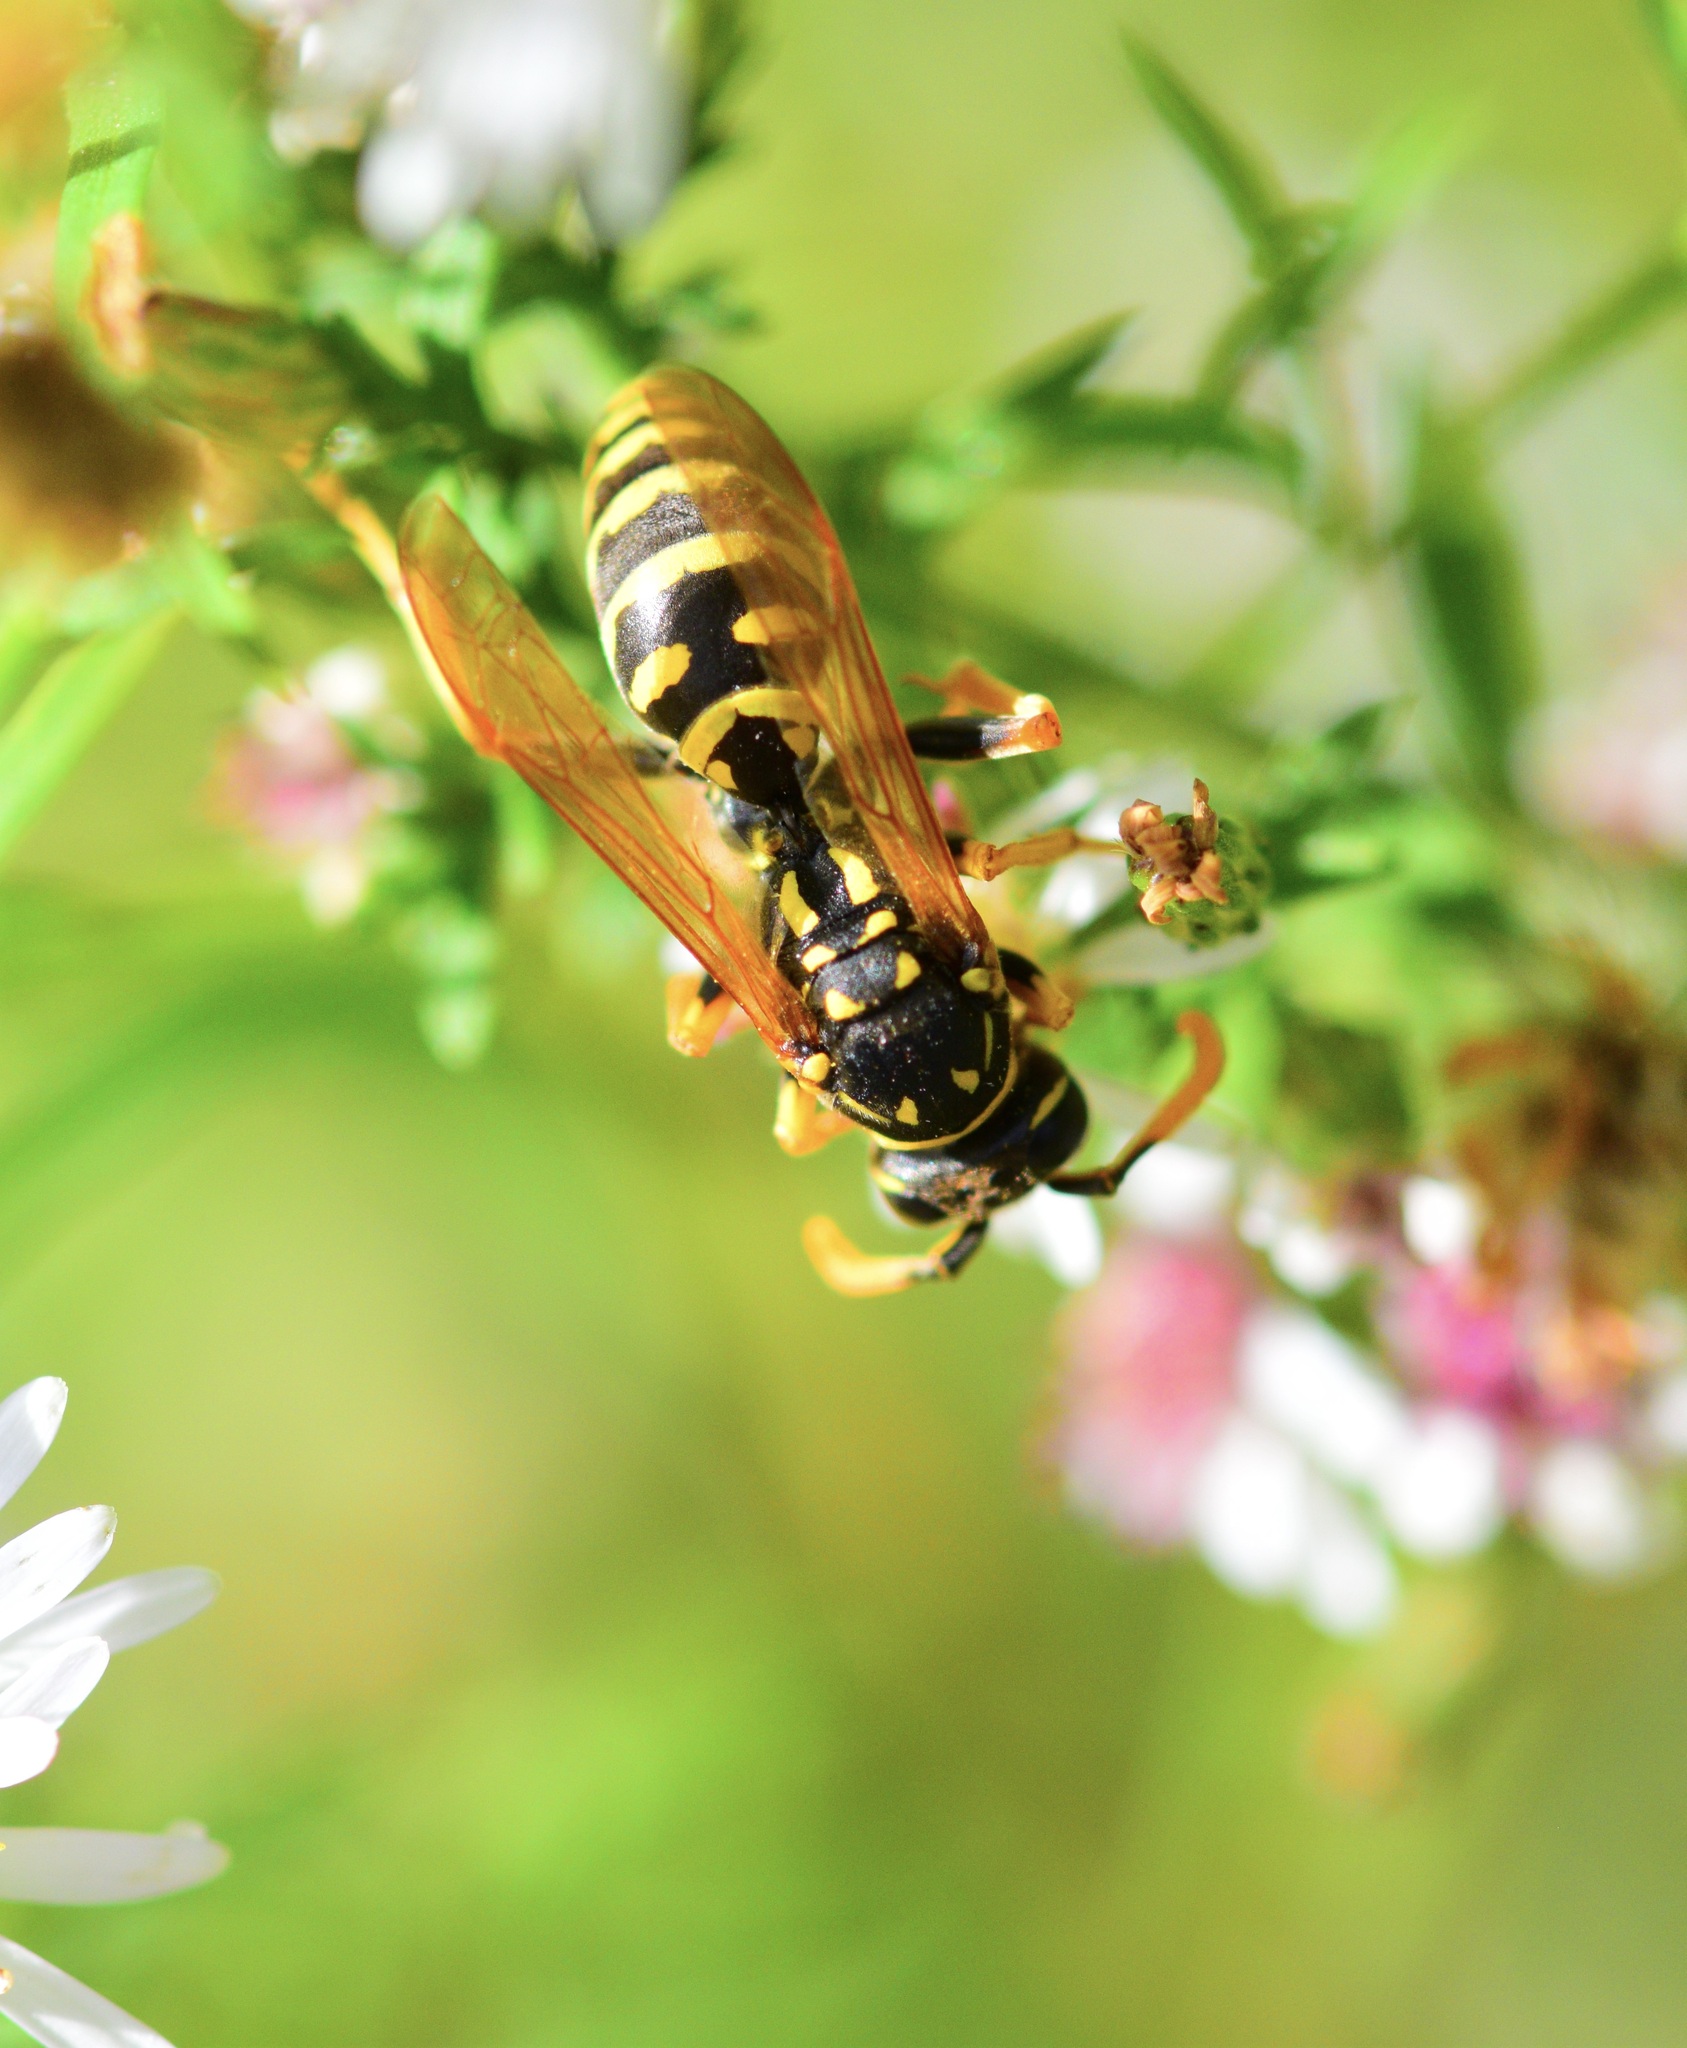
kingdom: Animalia
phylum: Arthropoda
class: Insecta
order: Hymenoptera
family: Eumenidae
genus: Polistes
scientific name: Polistes dominula
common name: Paper wasp
